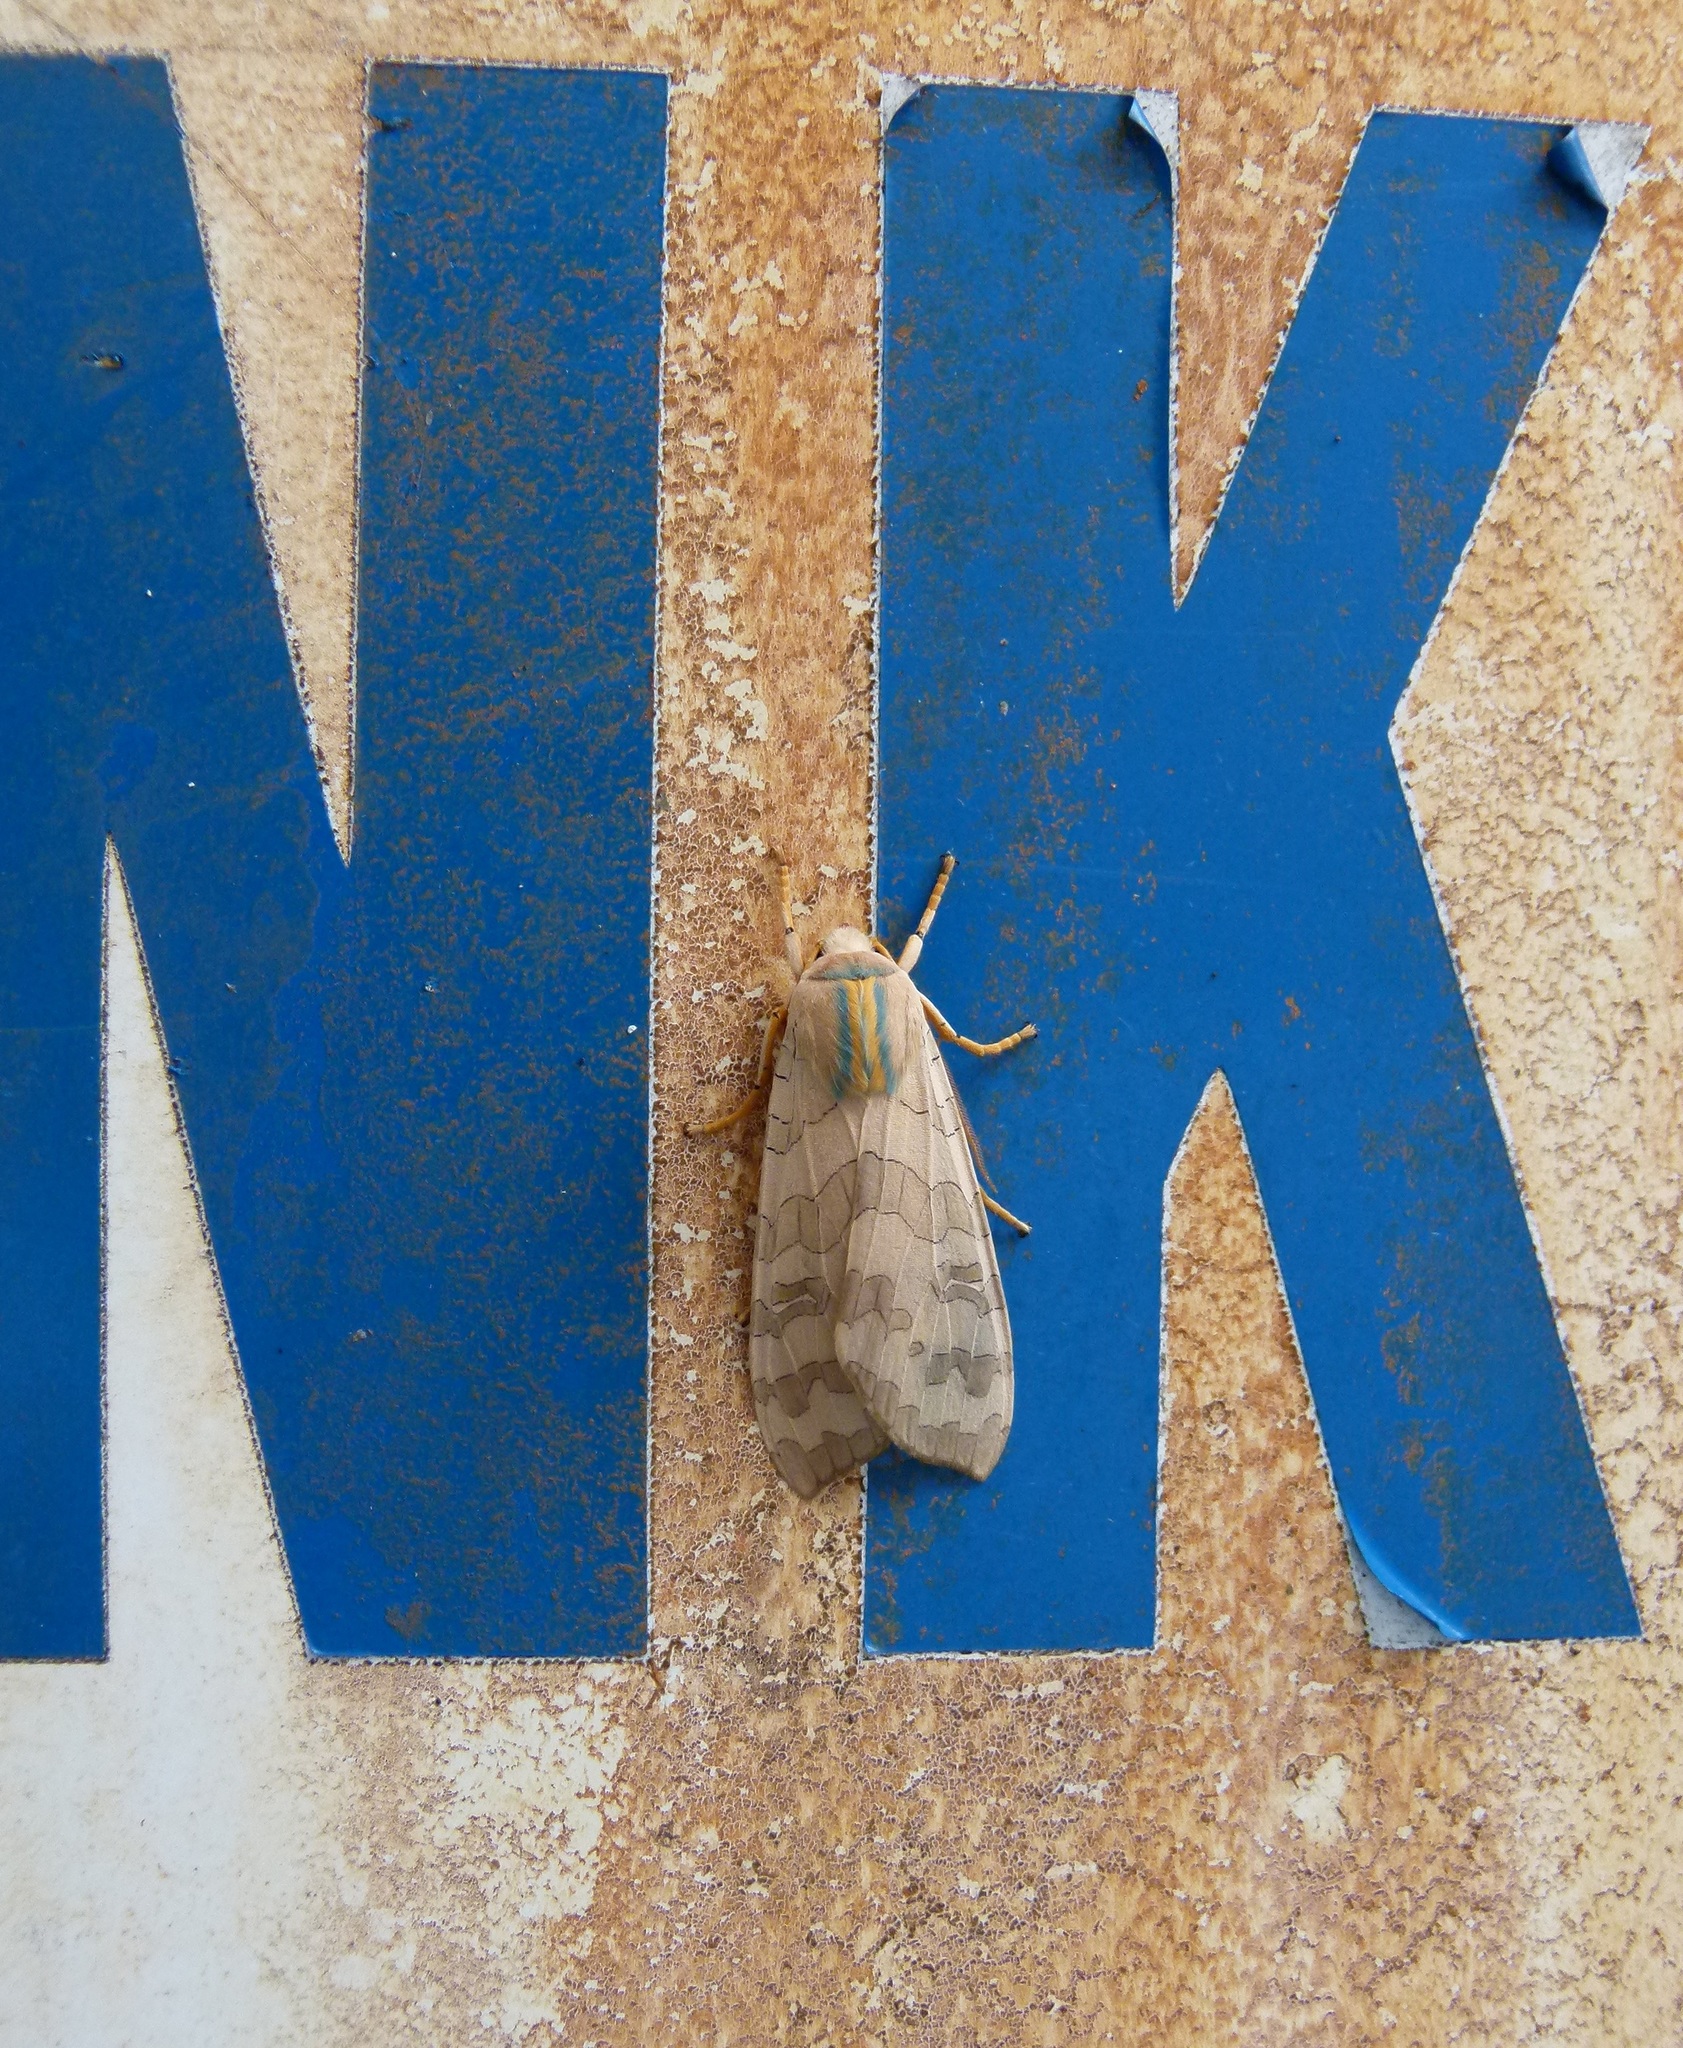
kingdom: Animalia
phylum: Arthropoda
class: Insecta
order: Lepidoptera
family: Erebidae
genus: Halysidota
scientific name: Halysidota
